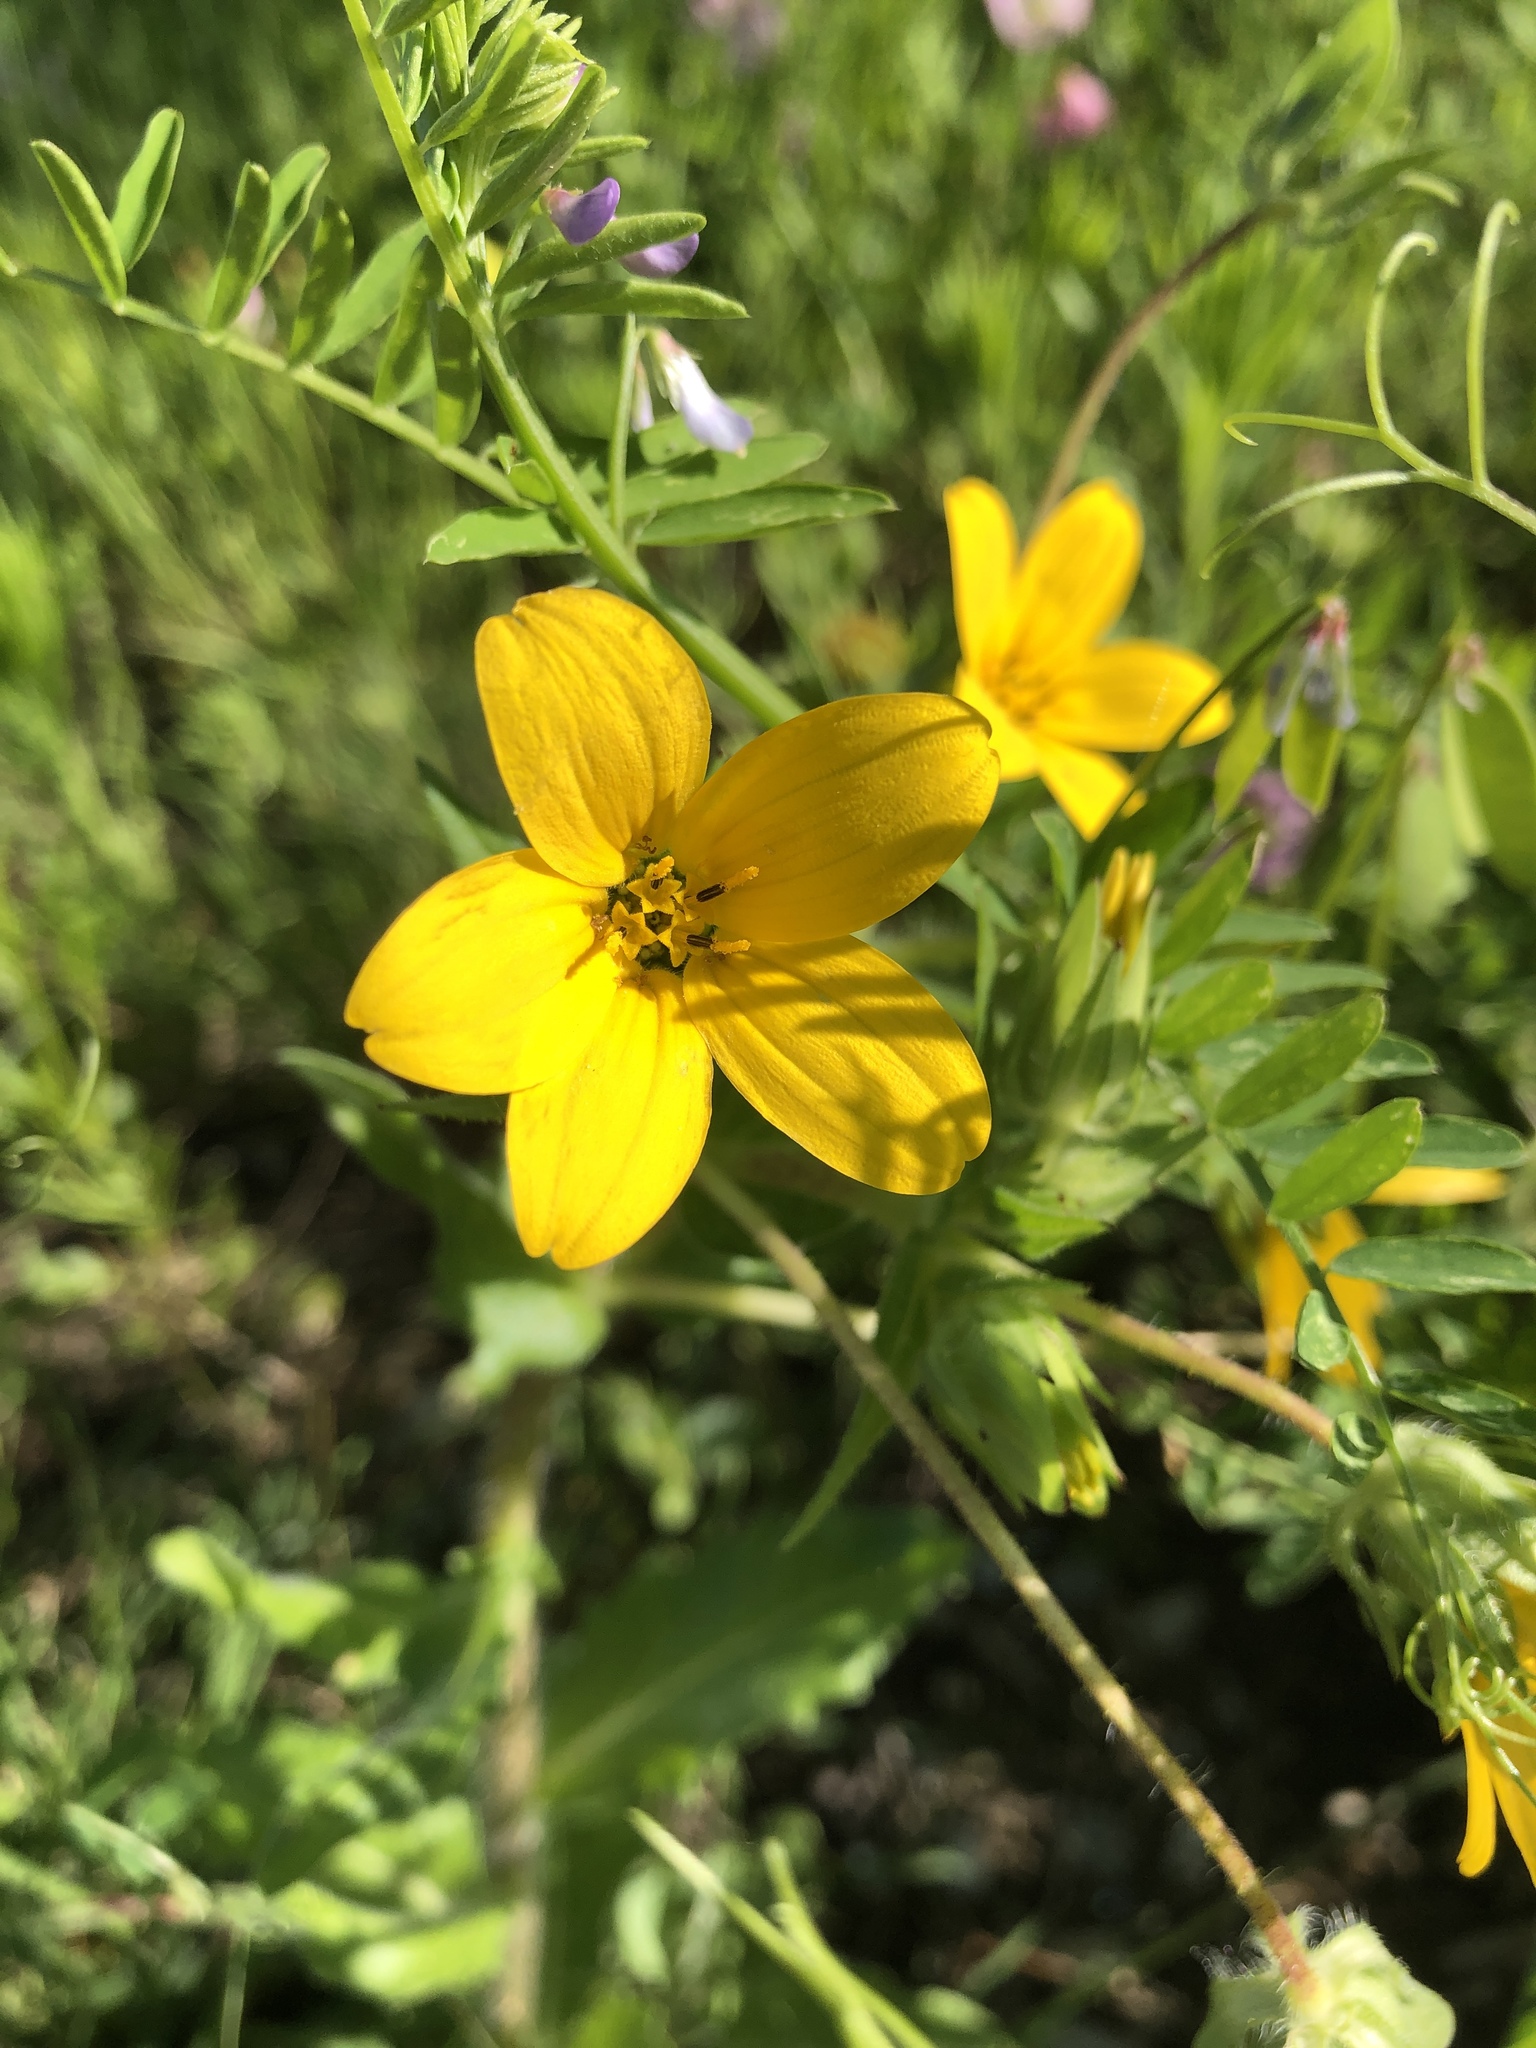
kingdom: Plantae
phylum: Tracheophyta
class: Magnoliopsida
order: Asterales
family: Asteraceae
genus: Lindheimera
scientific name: Lindheimera texana
